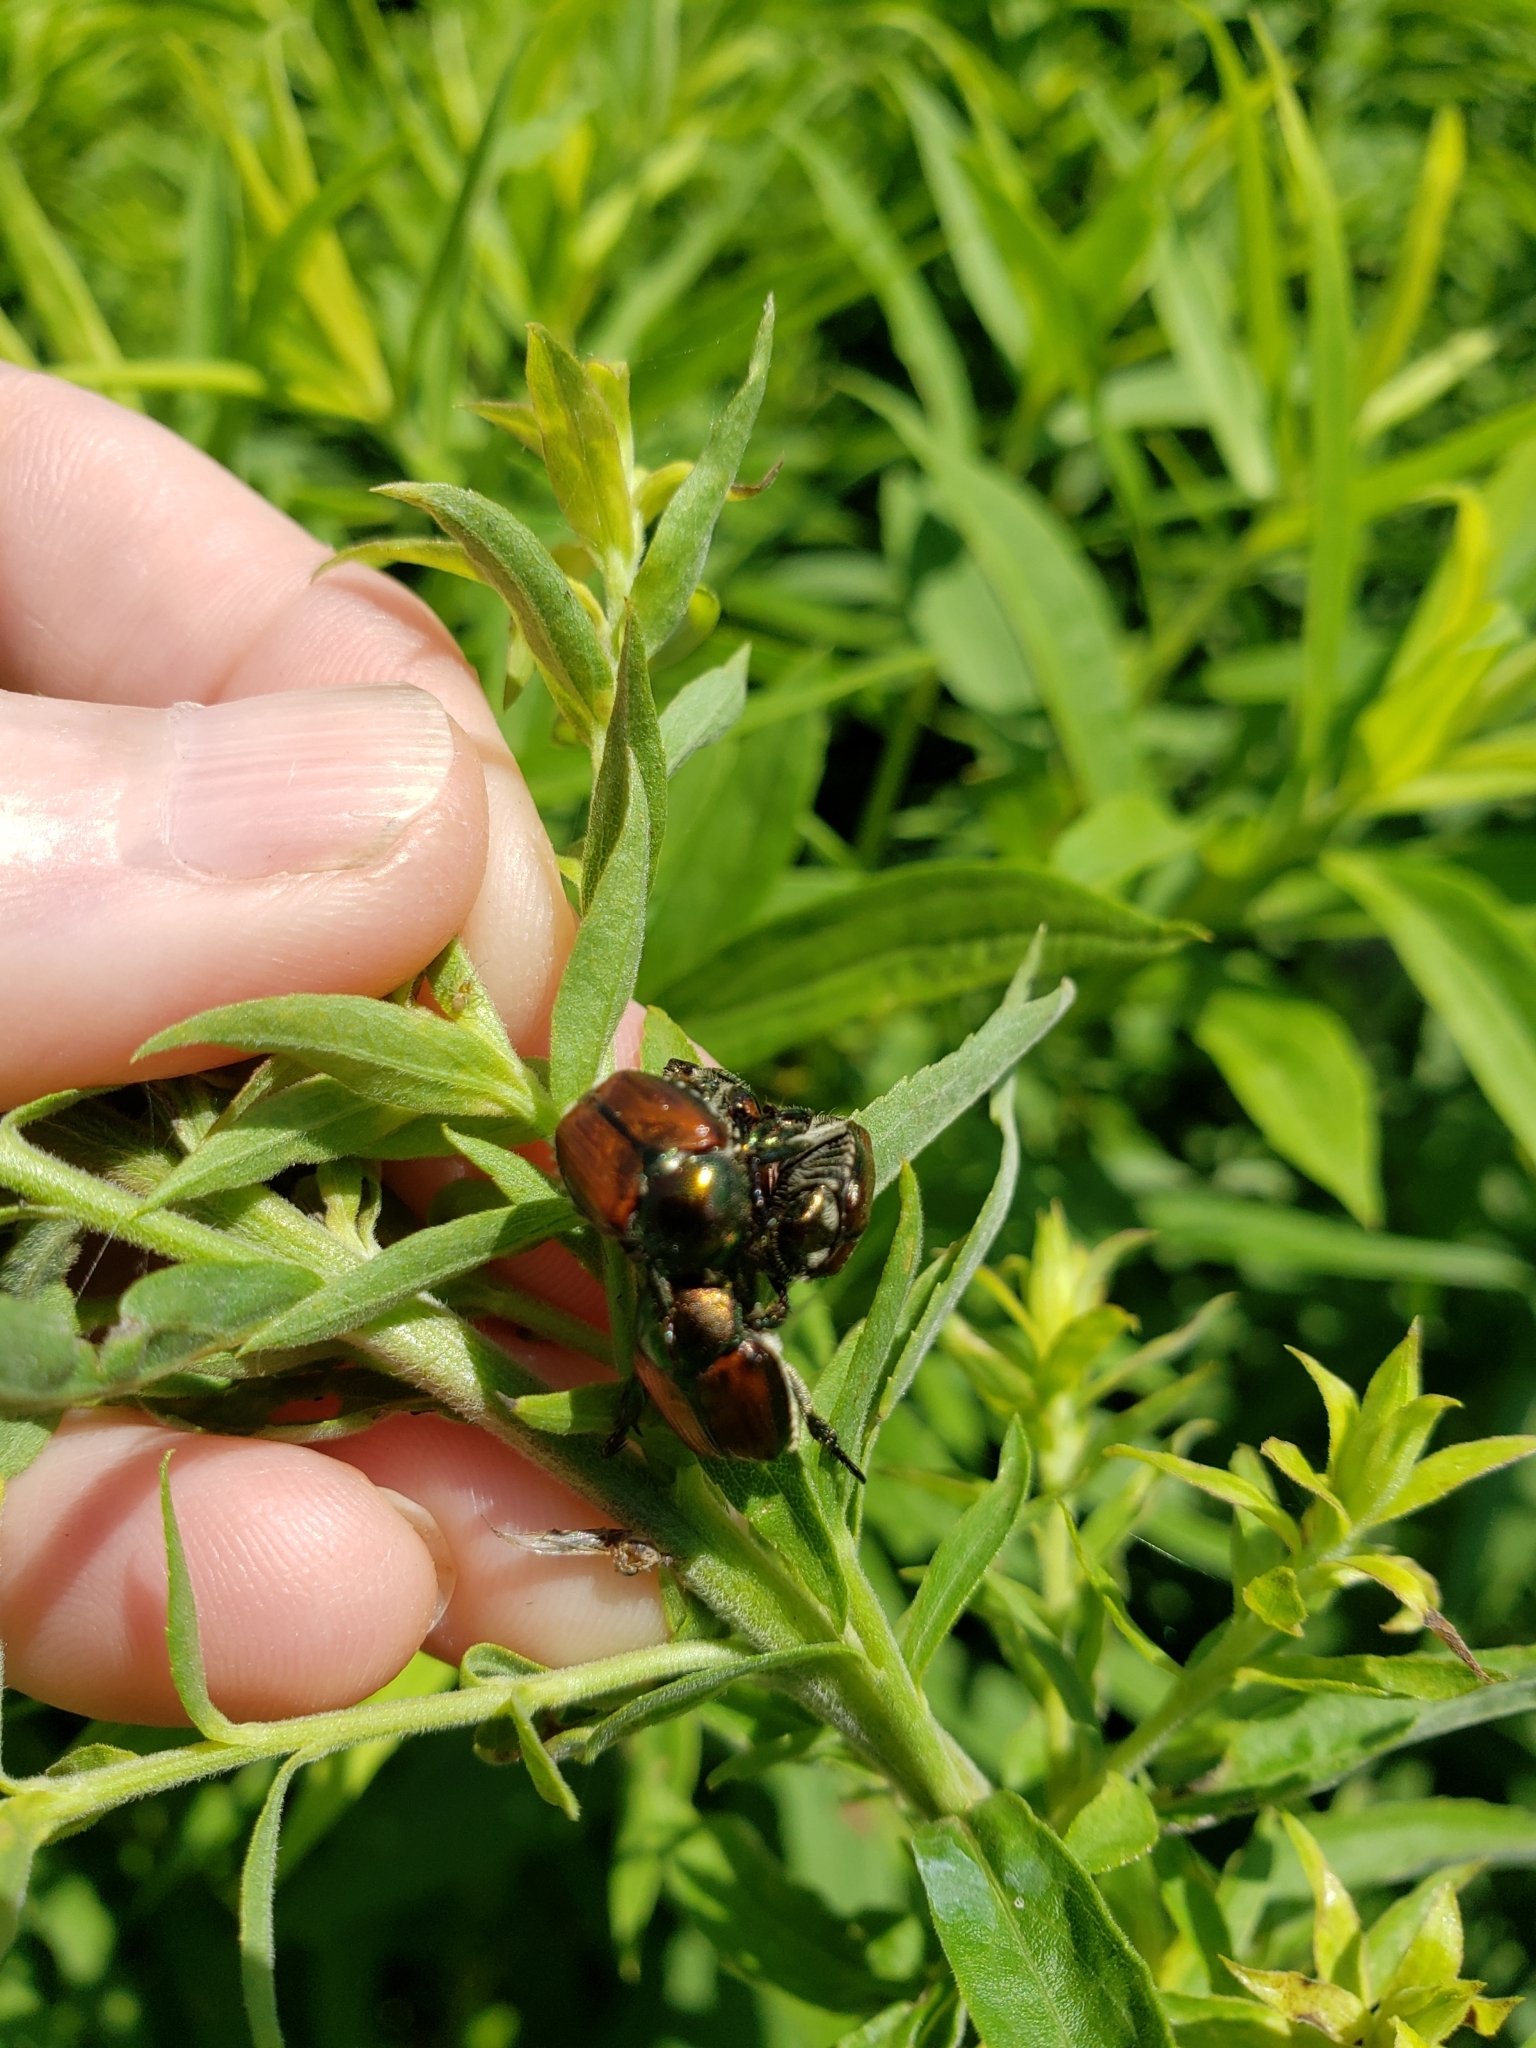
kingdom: Animalia
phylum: Arthropoda
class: Insecta
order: Coleoptera
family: Scarabaeidae
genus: Popillia
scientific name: Popillia japonica
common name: Japanese beetle
